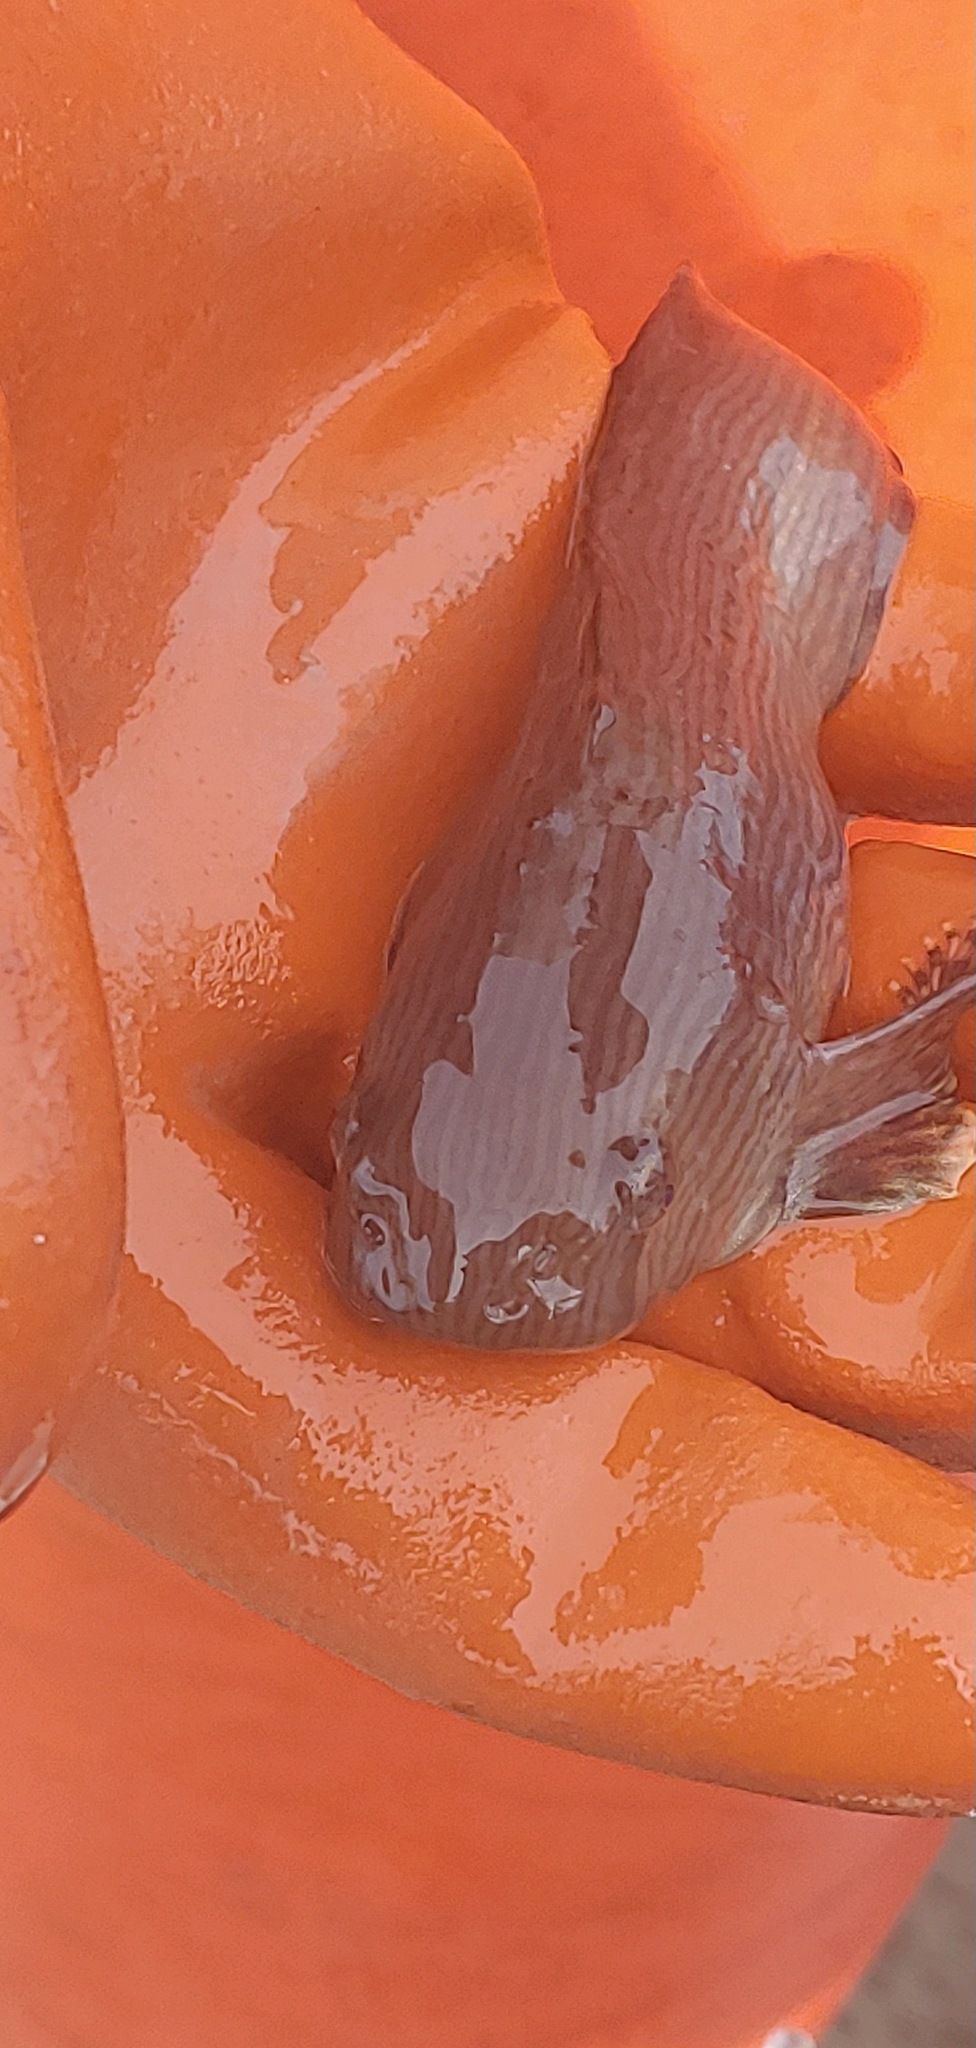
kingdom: Animalia
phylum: Chordata
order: Scorpaeniformes
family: Liparidae
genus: Liparis
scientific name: Liparis pulchellus
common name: Showy snailfish
